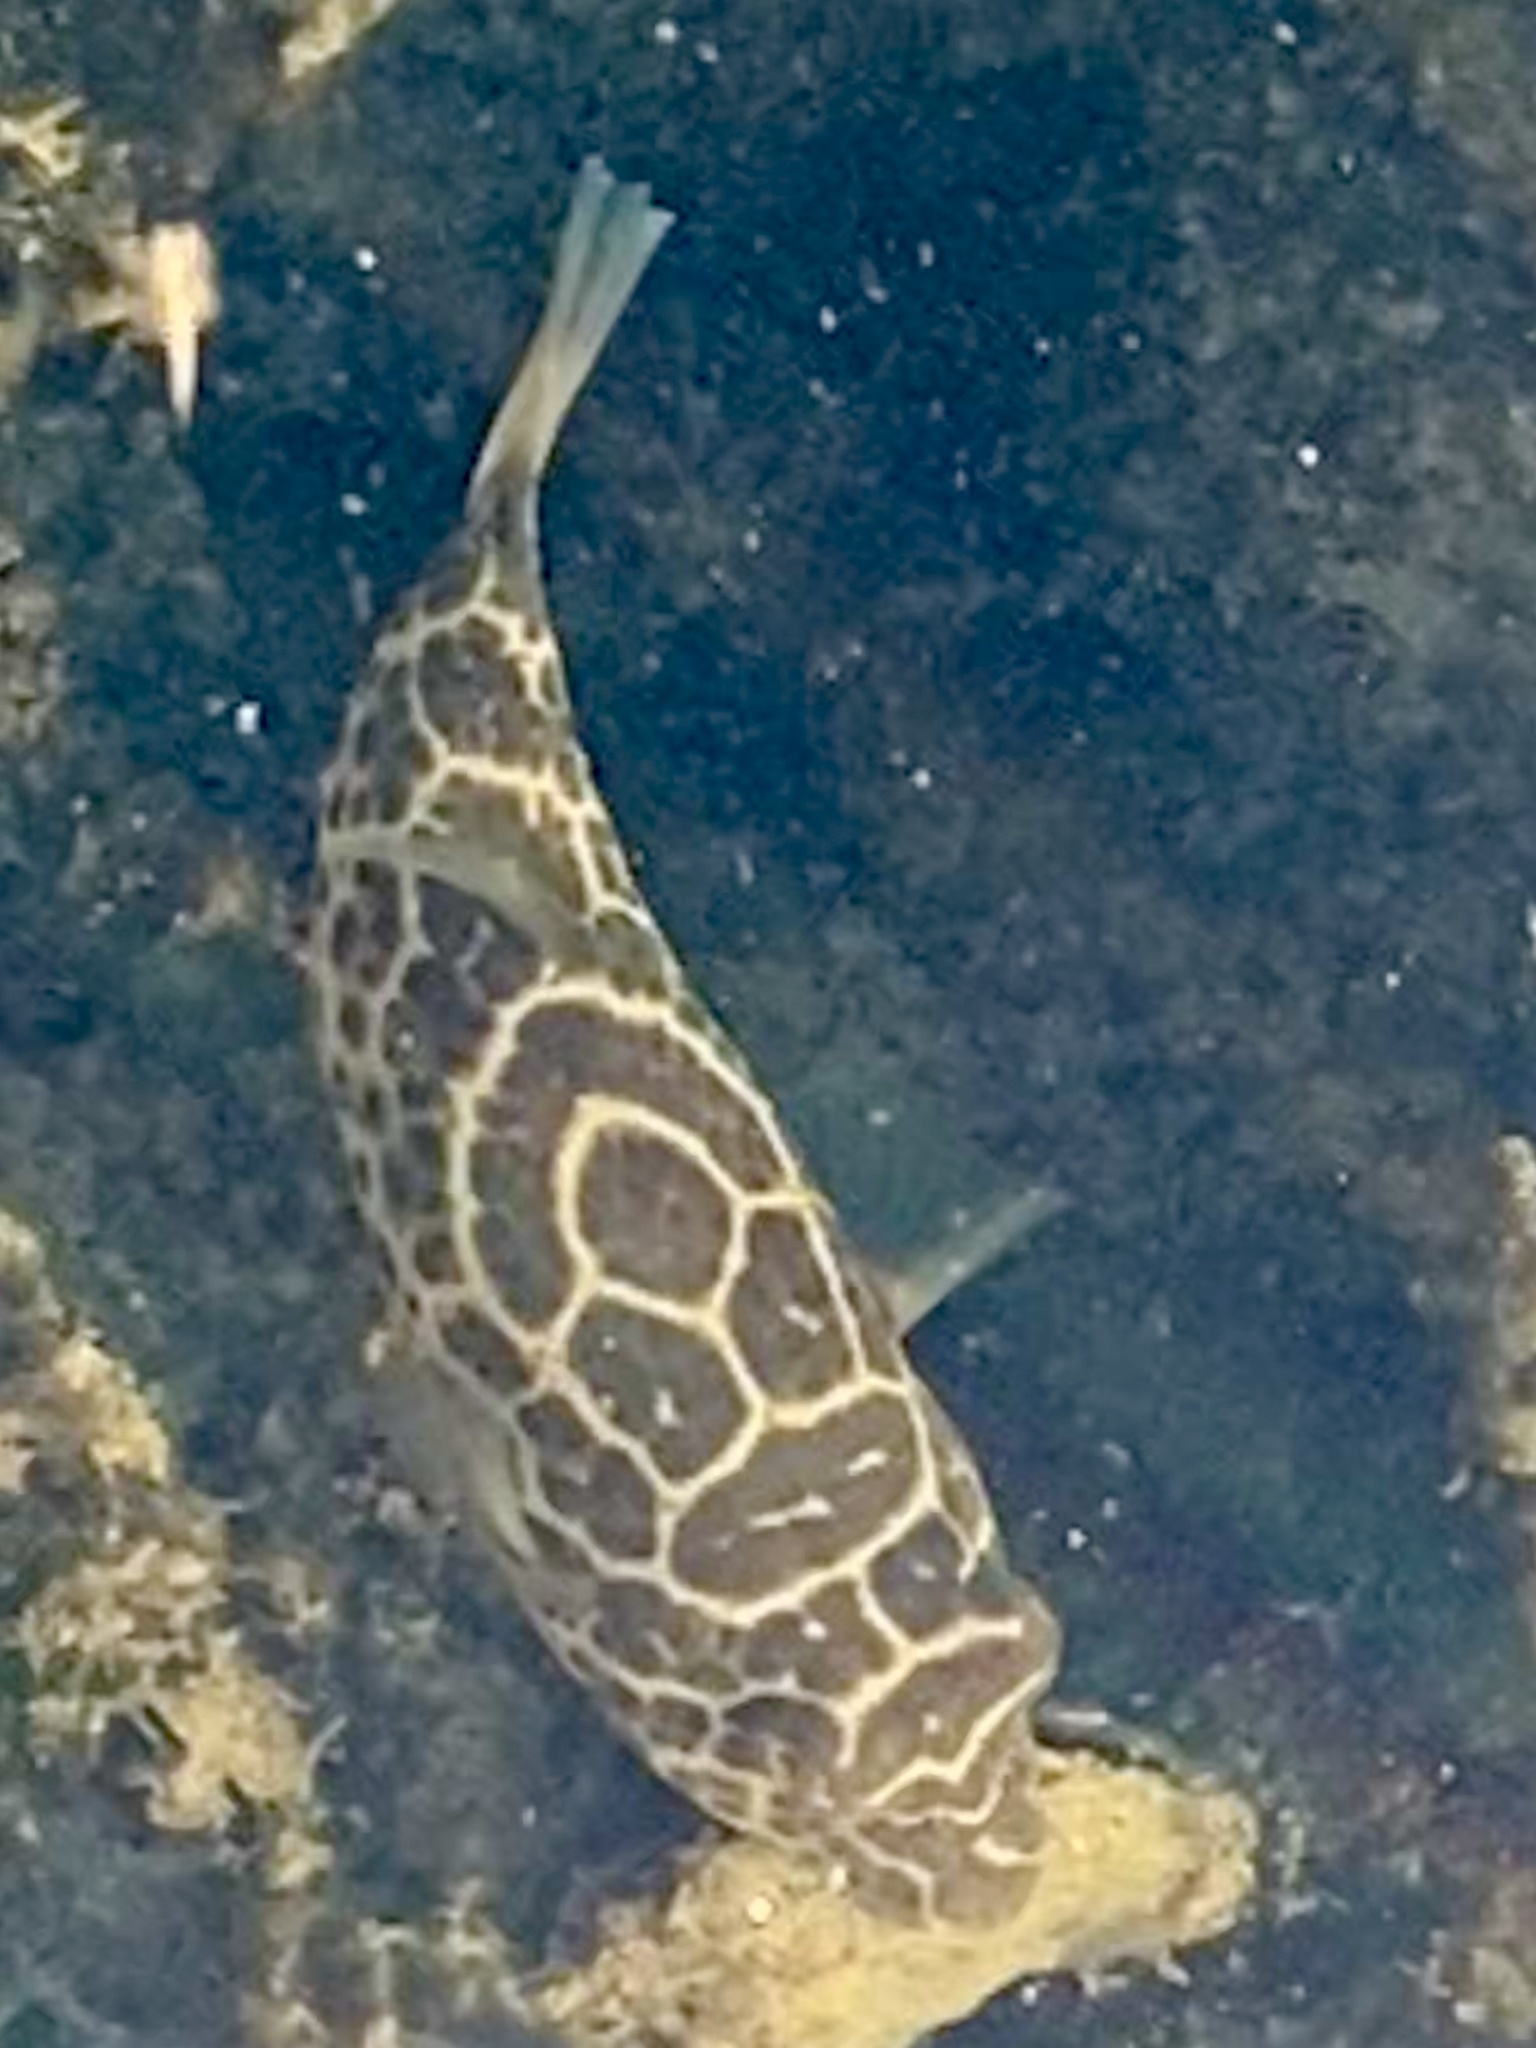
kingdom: Animalia
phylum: Chordata
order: Tetraodontiformes
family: Tetraodontidae
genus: Sphoeroides
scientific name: Sphoeroides testudineus
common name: Checkered puffer
